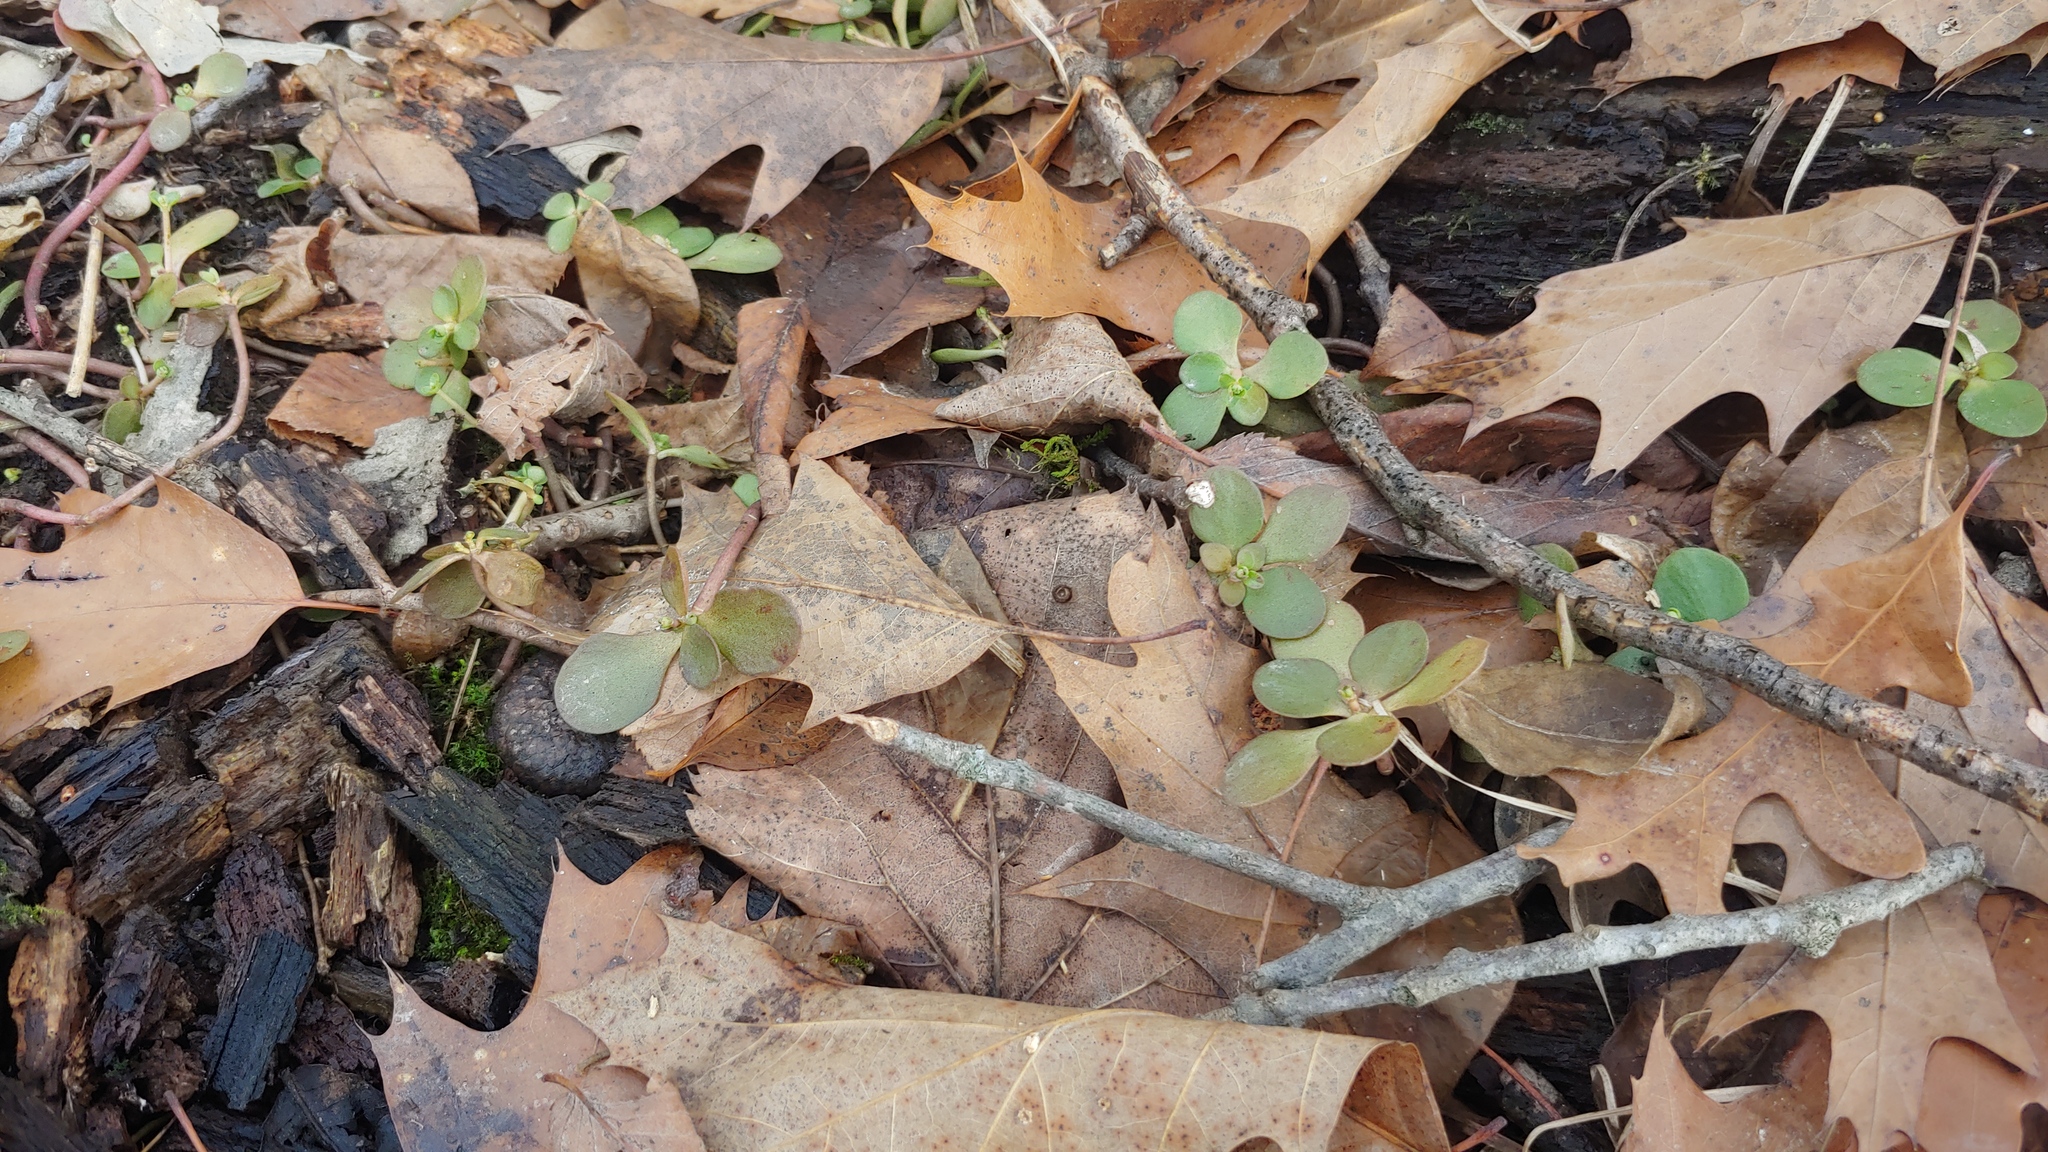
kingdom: Plantae
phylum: Tracheophyta
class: Magnoliopsida
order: Saxifragales
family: Crassulaceae
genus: Sedum
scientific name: Sedum ternatum
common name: Wild stonecrop
